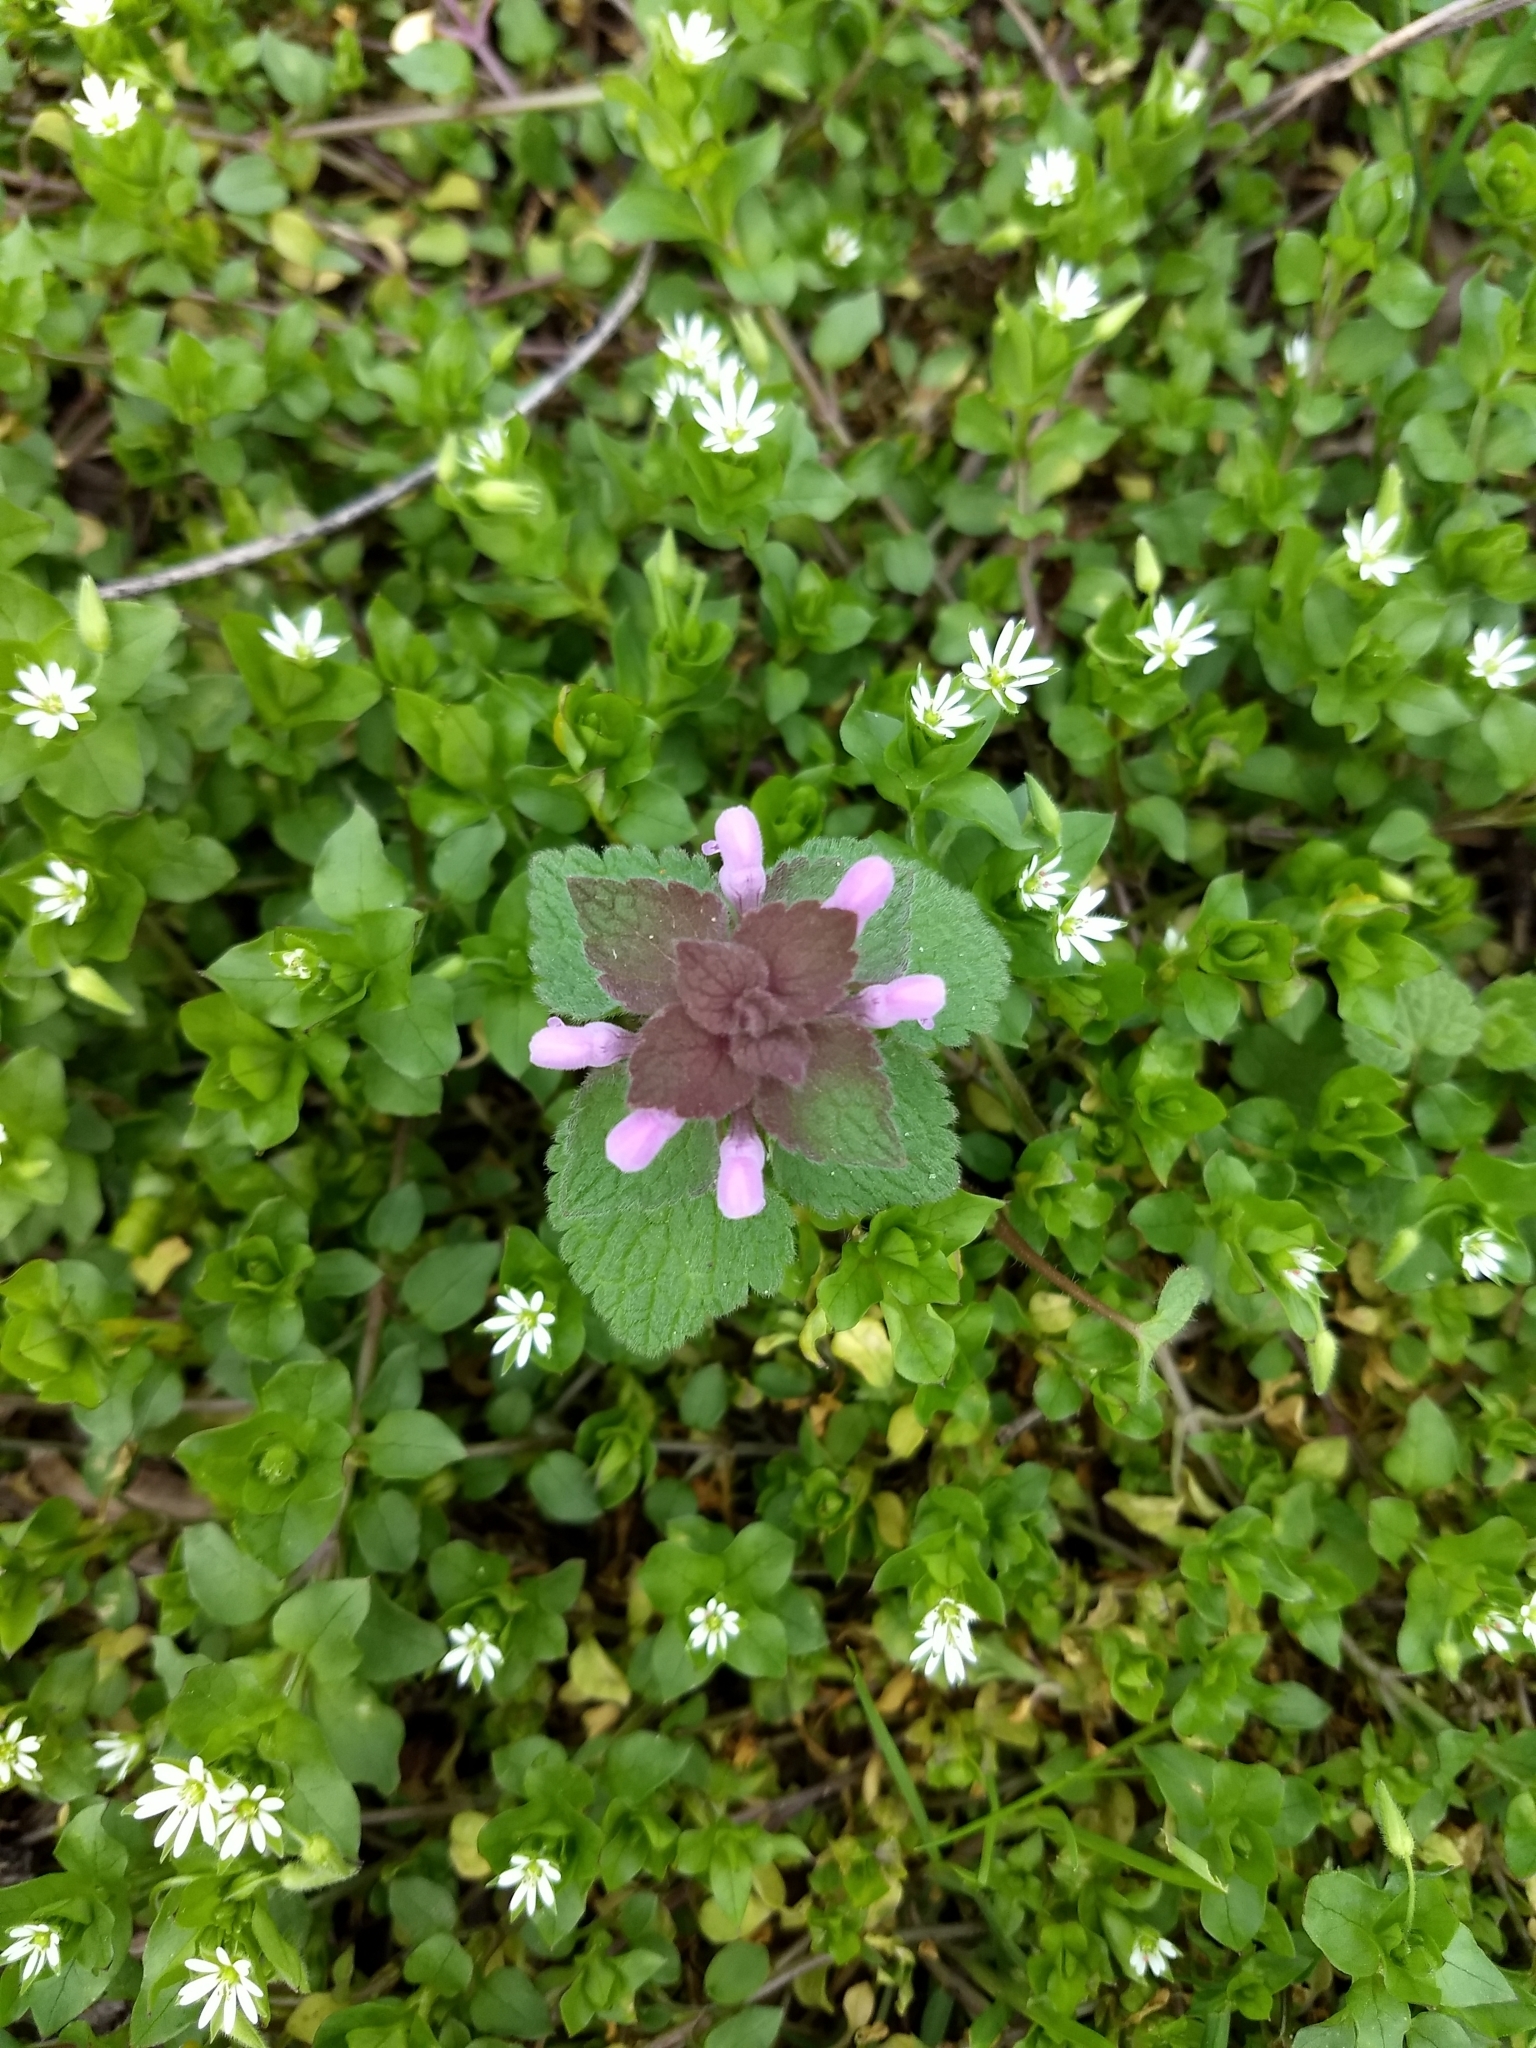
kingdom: Plantae
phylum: Tracheophyta
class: Magnoliopsida
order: Lamiales
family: Lamiaceae
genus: Lamium
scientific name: Lamium purpureum
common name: Red dead-nettle
